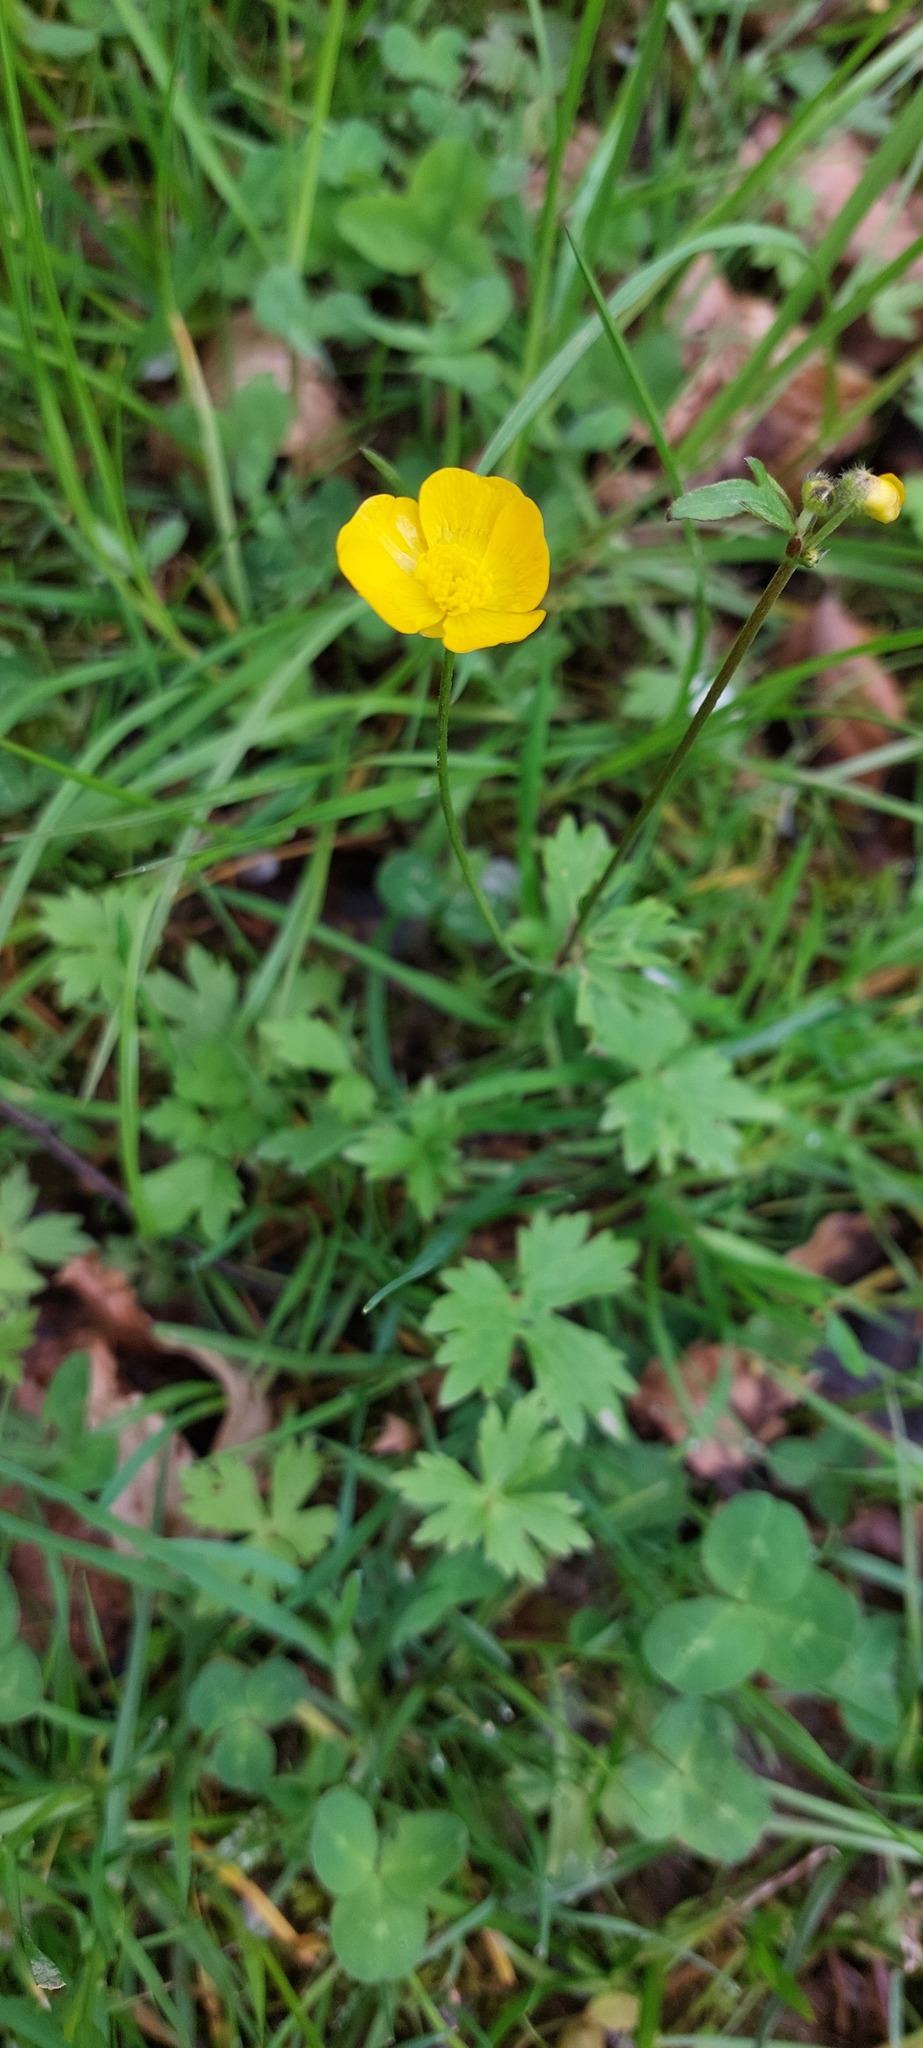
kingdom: Plantae
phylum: Tracheophyta
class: Magnoliopsida
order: Ranunculales
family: Ranunculaceae
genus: Ranunculus
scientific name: Ranunculus repens
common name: Creeping buttercup
